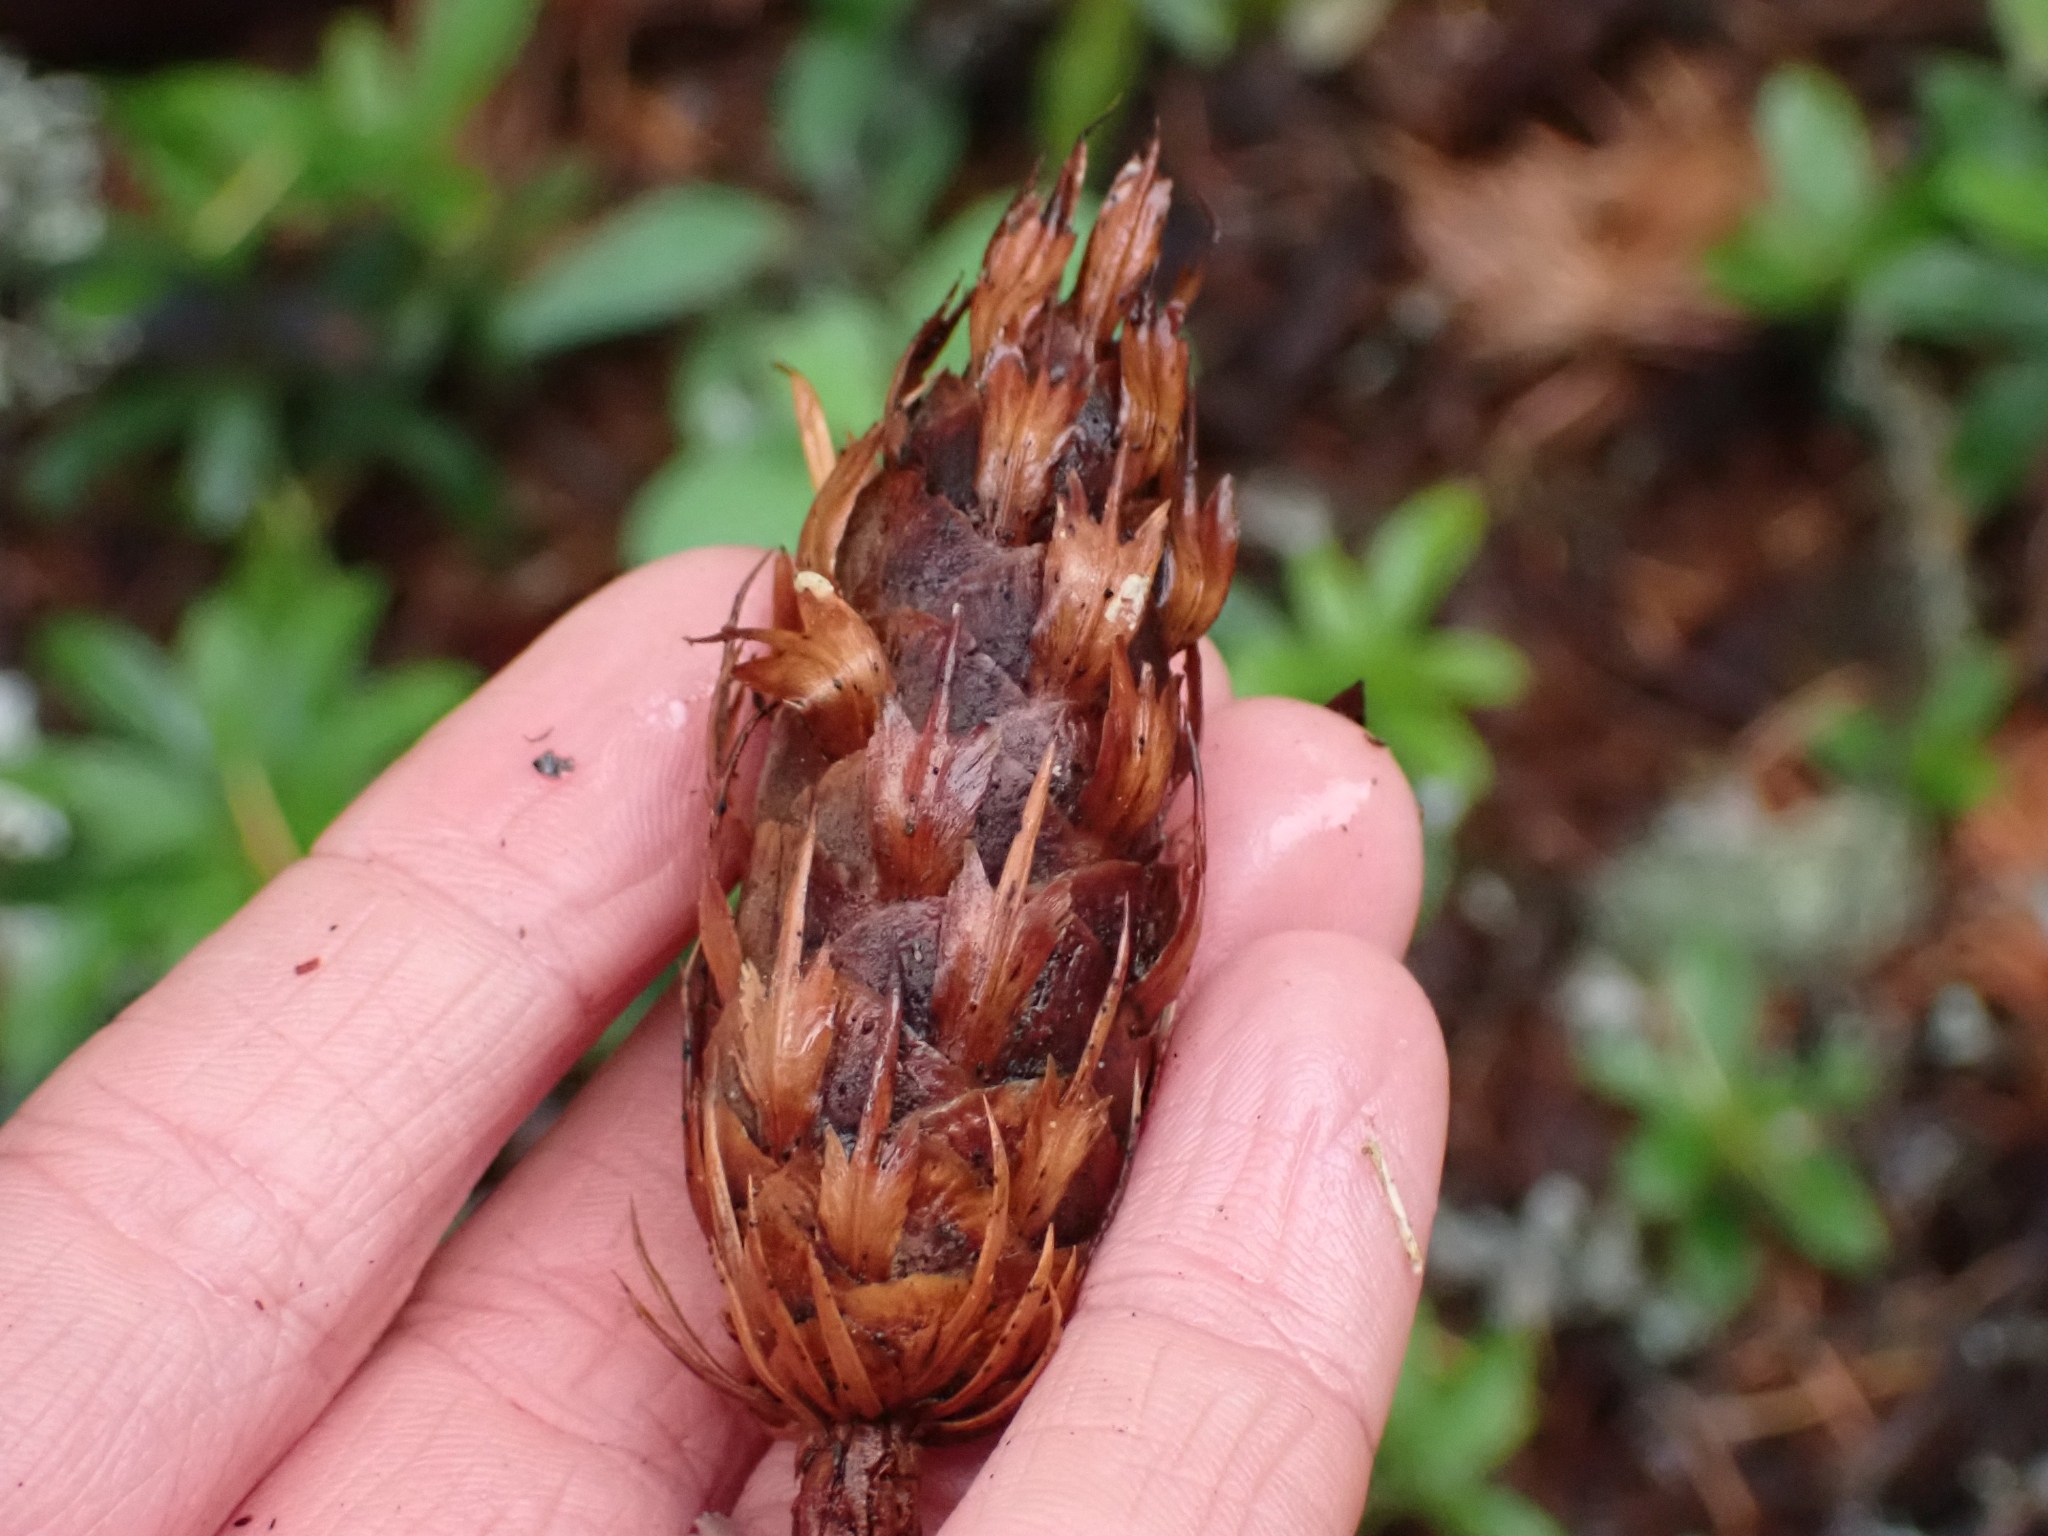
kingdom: Plantae
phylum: Tracheophyta
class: Pinopsida
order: Pinales
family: Pinaceae
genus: Pseudotsuga
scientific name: Pseudotsuga menziesii
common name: Douglas fir
